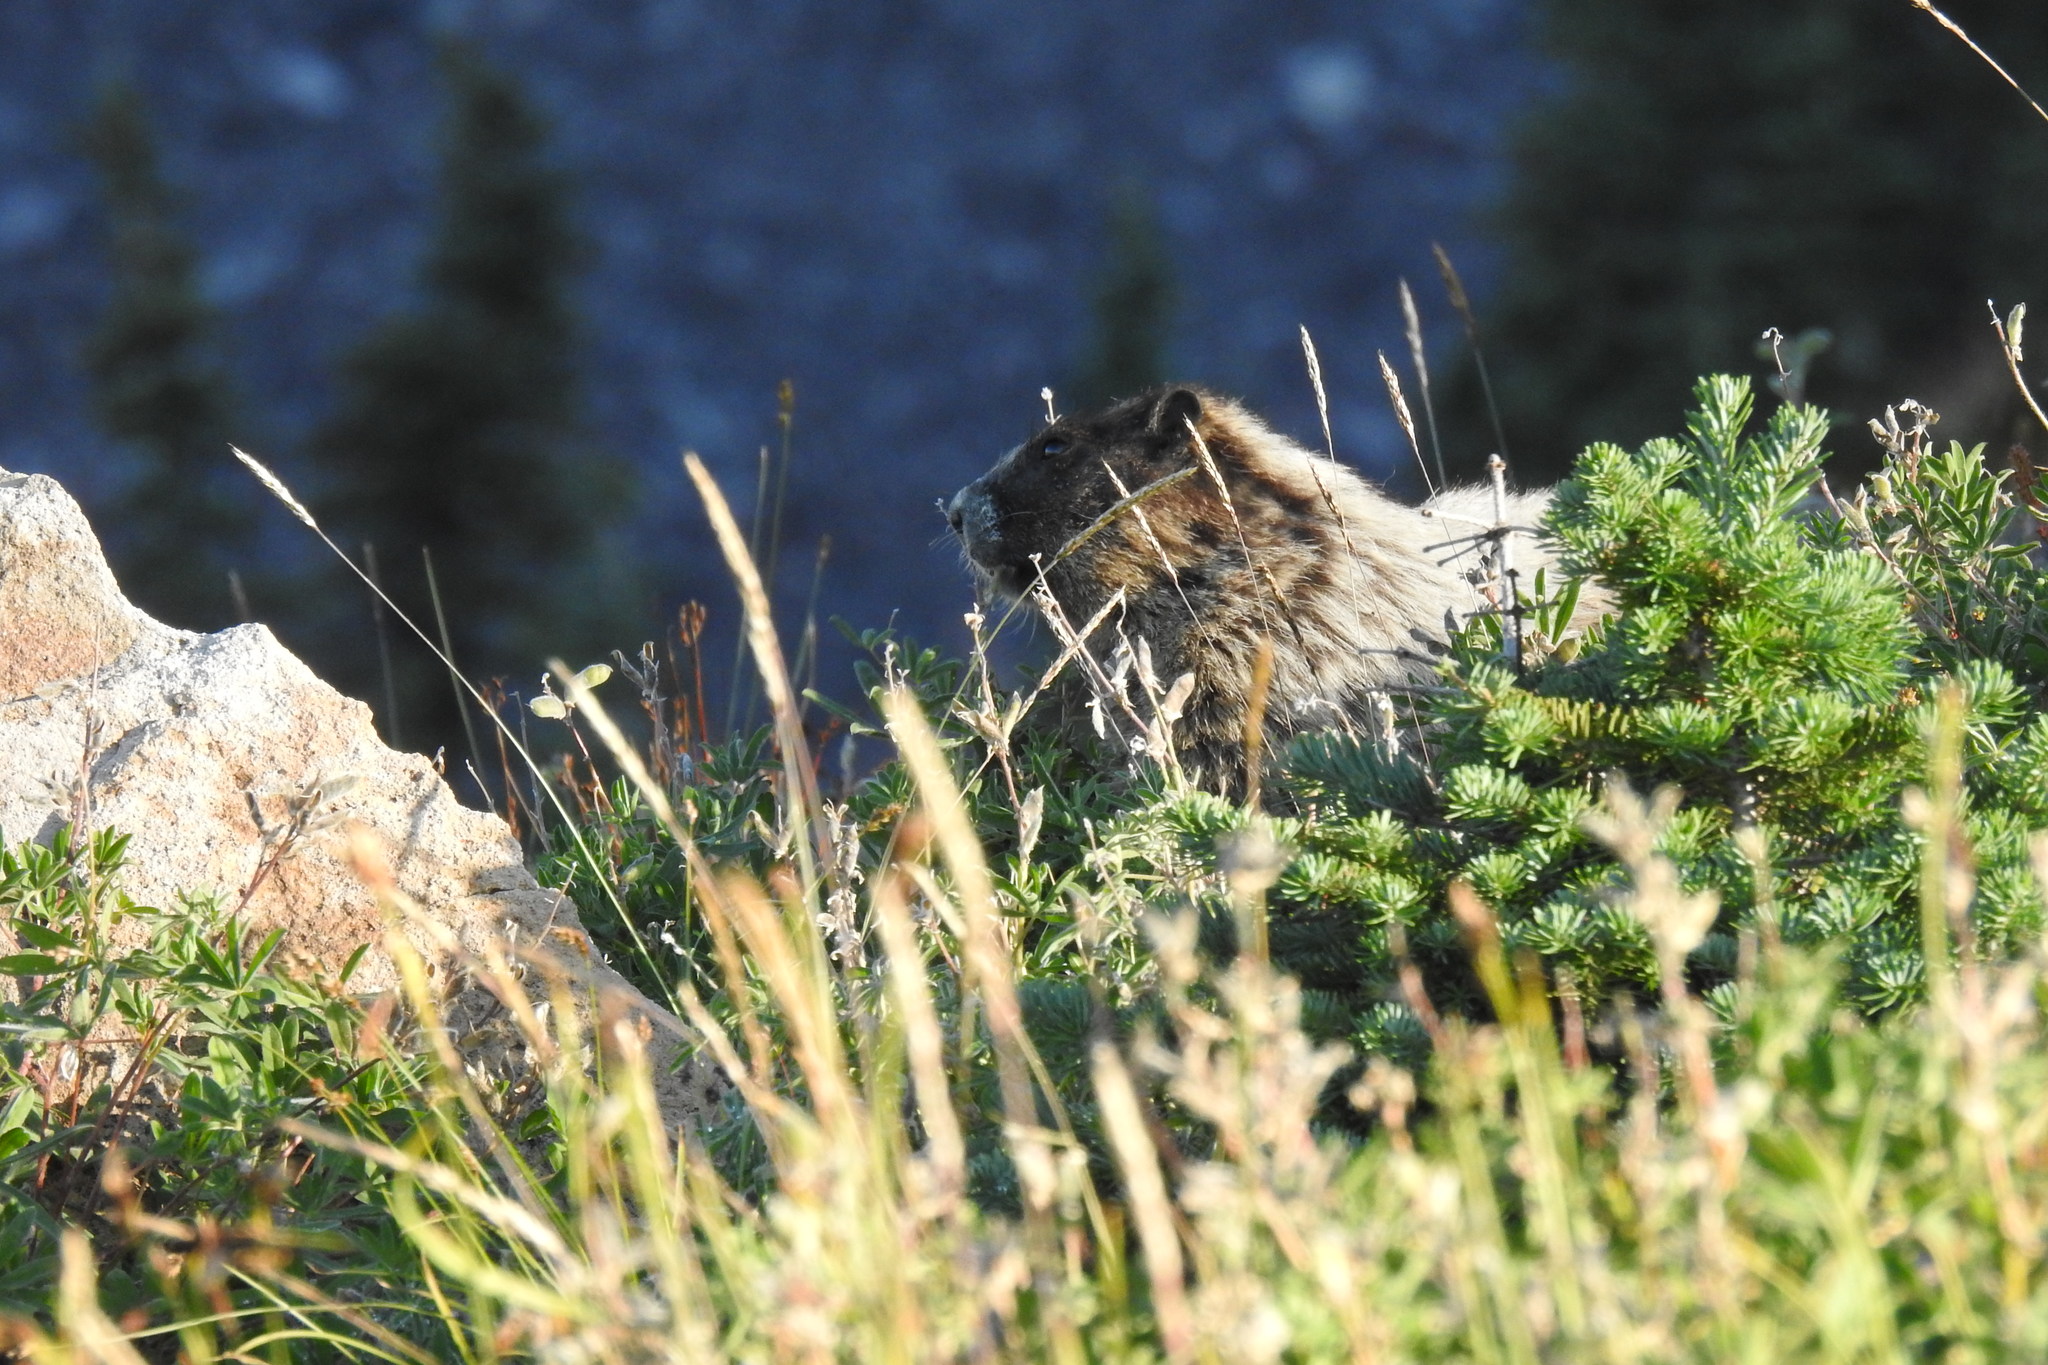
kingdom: Animalia
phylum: Chordata
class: Mammalia
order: Rodentia
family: Sciuridae
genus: Marmota
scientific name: Marmota caligata
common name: Hoary marmot
